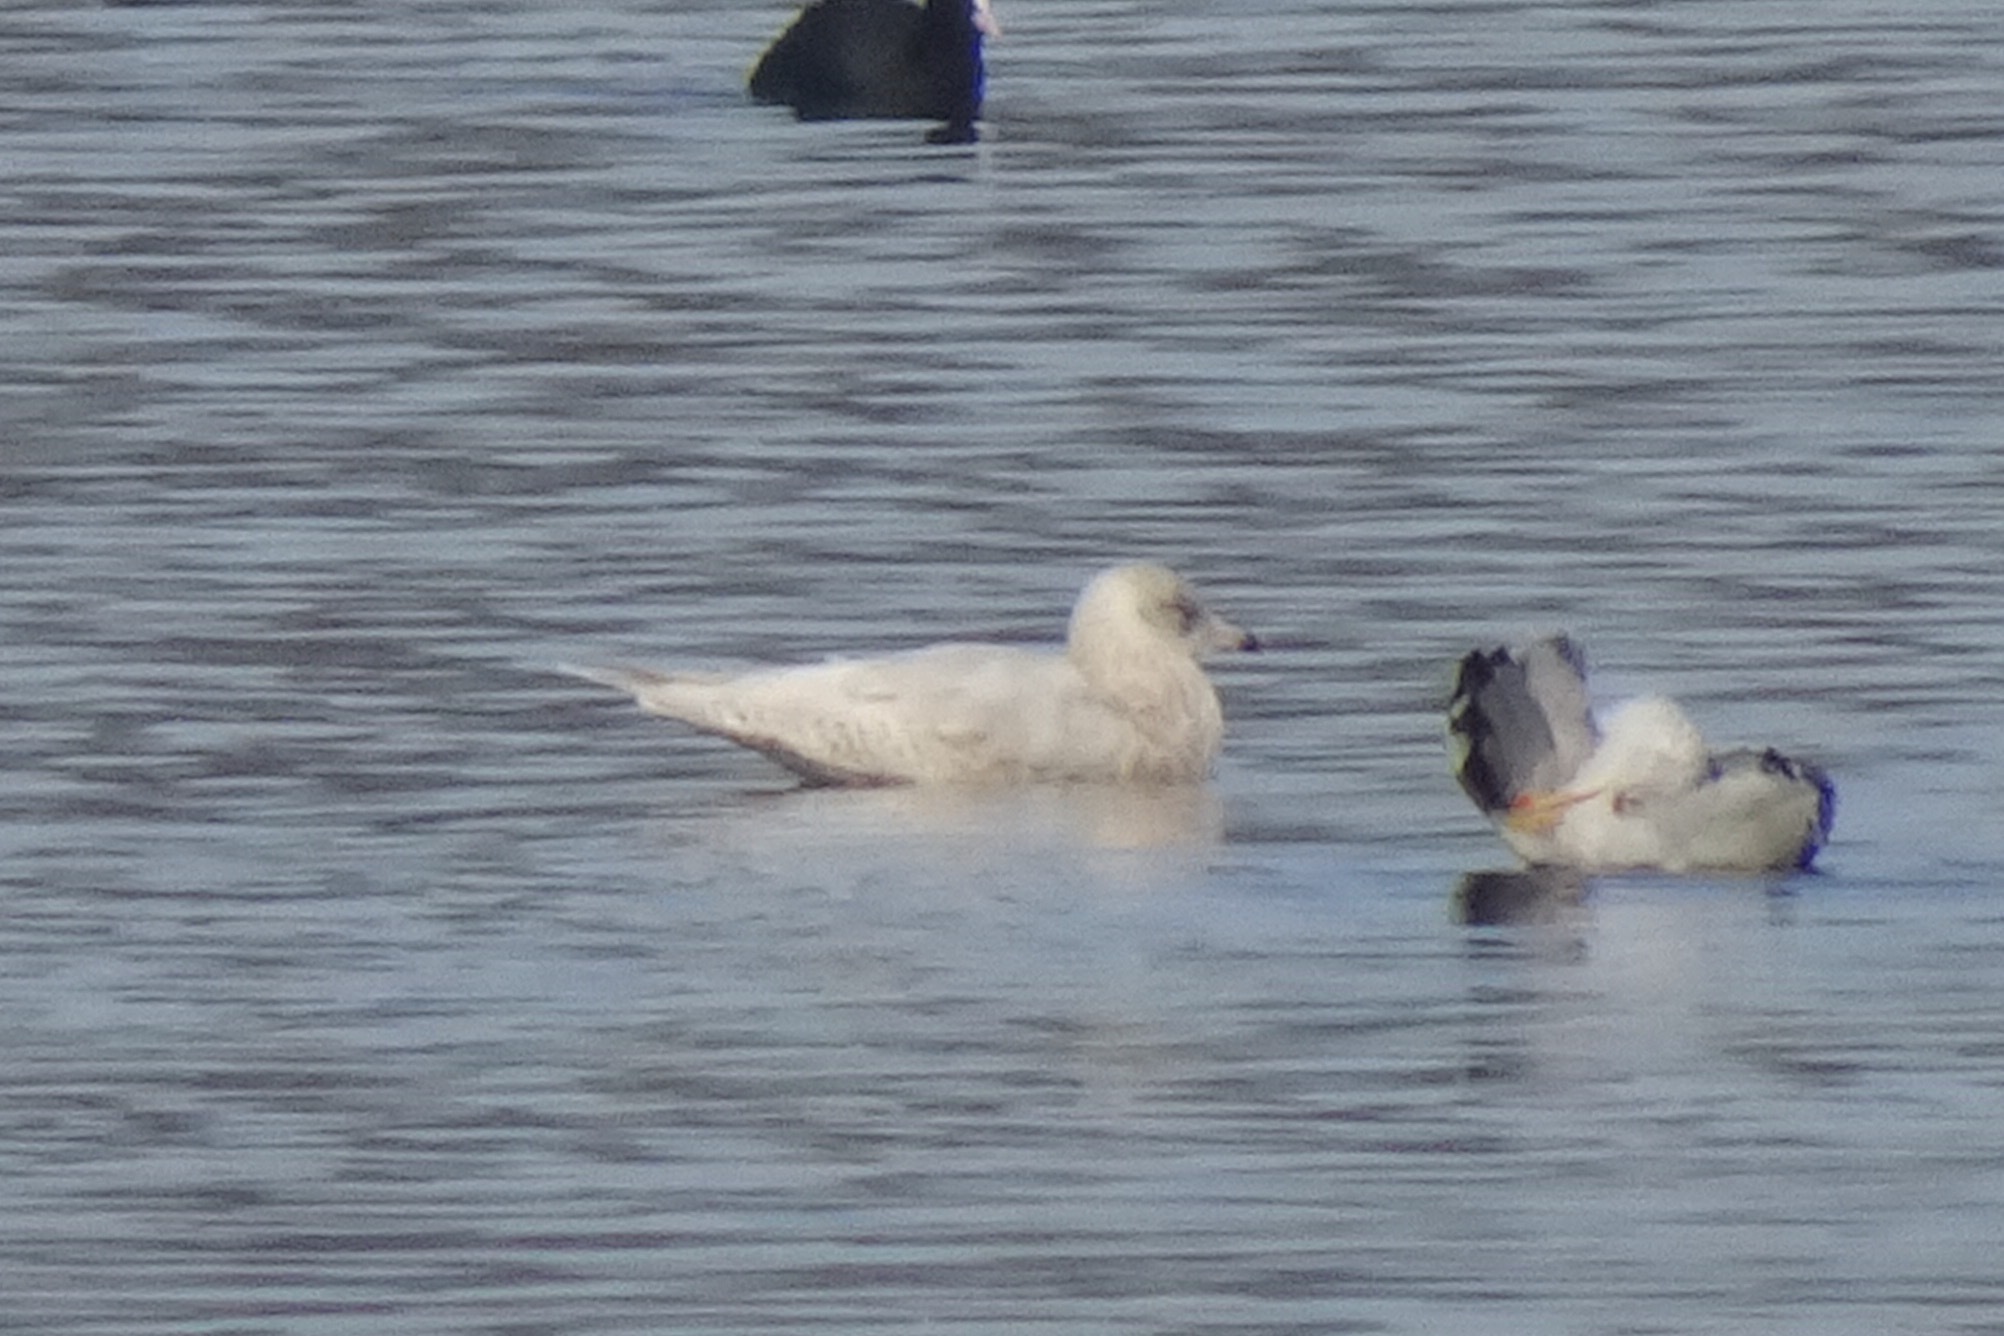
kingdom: Animalia
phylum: Chordata
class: Aves
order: Charadriiformes
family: Laridae
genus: Larus
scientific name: Larus glaucoides
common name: Iceland gull
